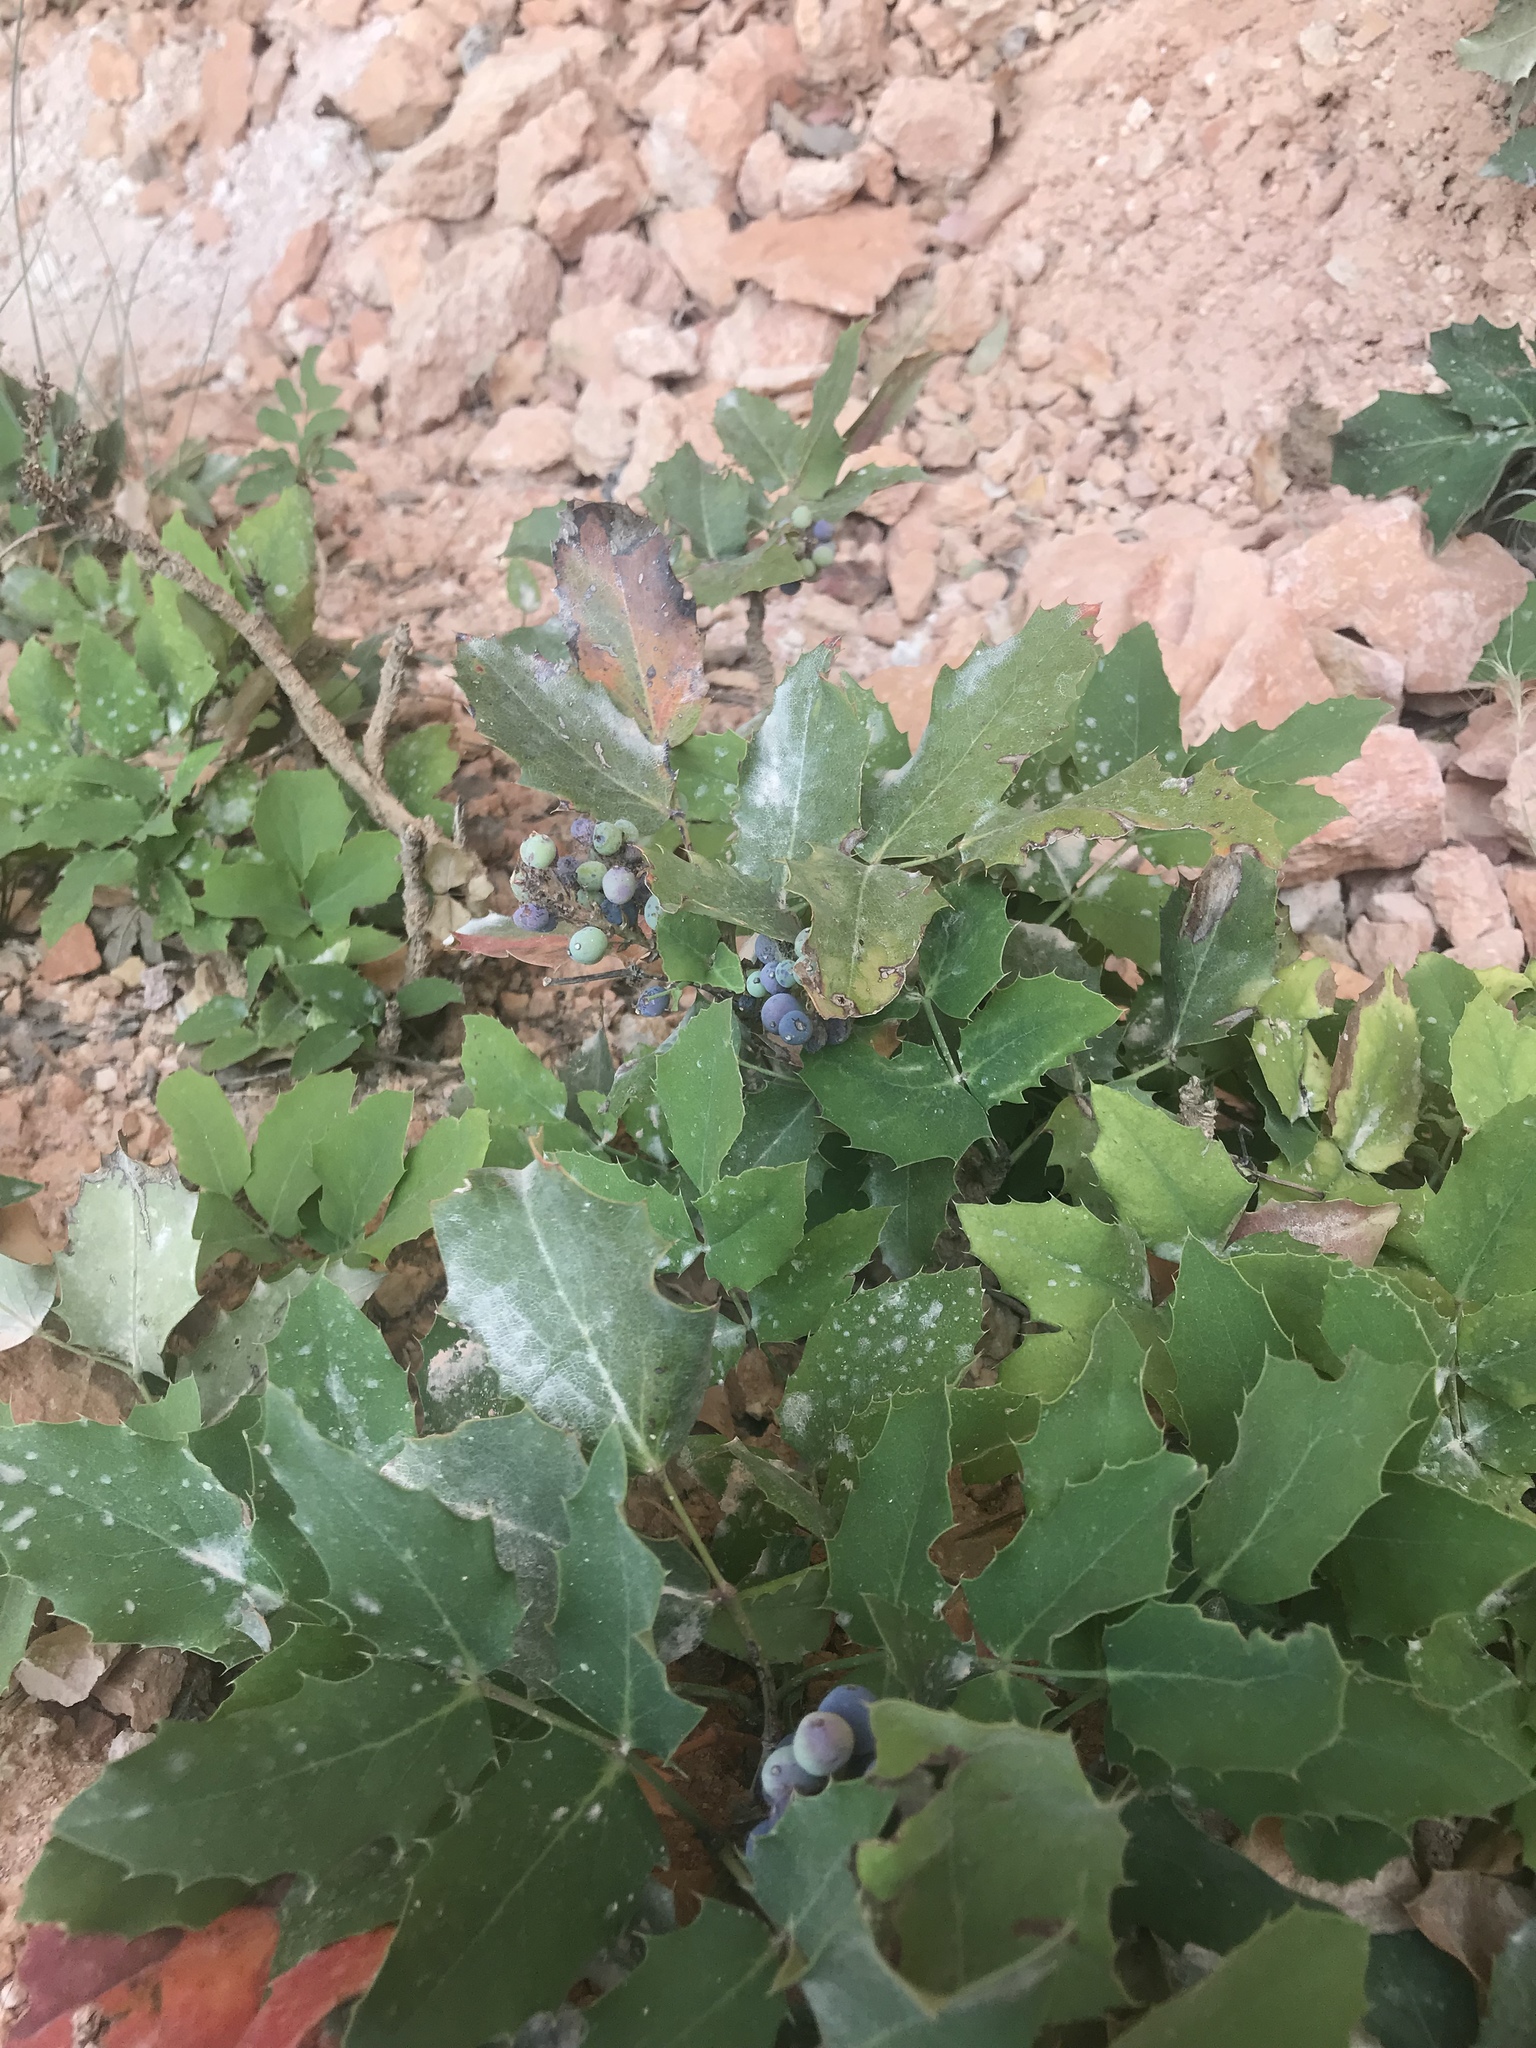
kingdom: Plantae
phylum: Tracheophyta
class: Magnoliopsida
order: Ranunculales
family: Berberidaceae
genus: Mahonia
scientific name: Mahonia repens
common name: Creeping oregon-grape
